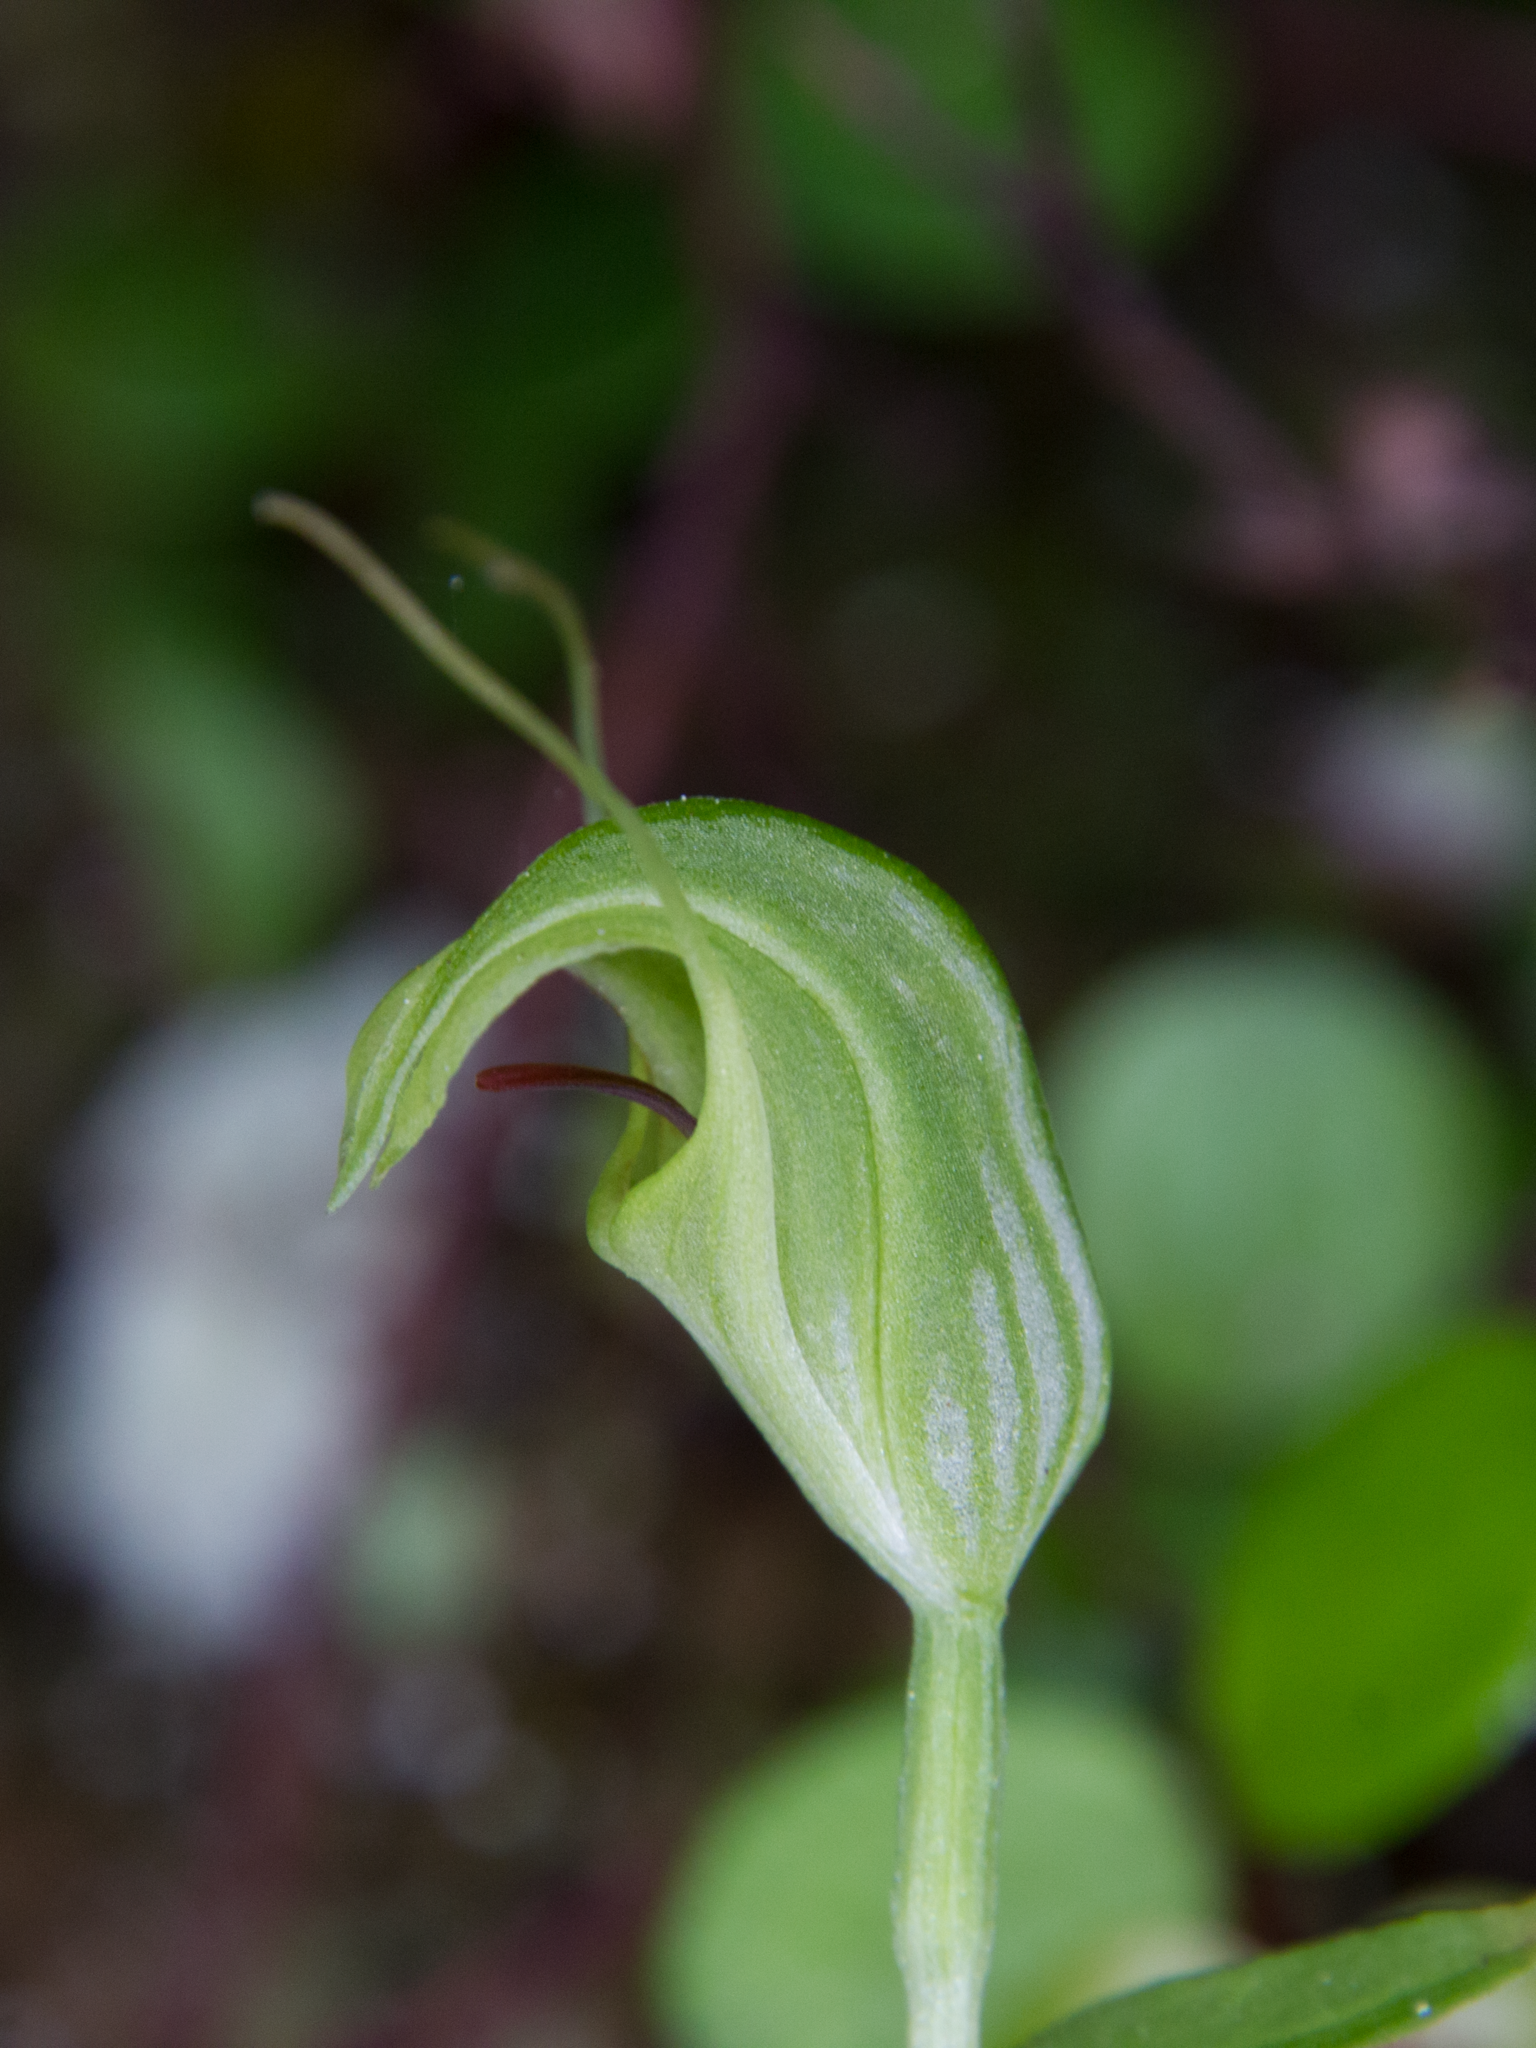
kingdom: Plantae
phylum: Tracheophyta
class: Liliopsida
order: Asparagales
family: Orchidaceae
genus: Pterostylis
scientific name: Pterostylis trullifolia
